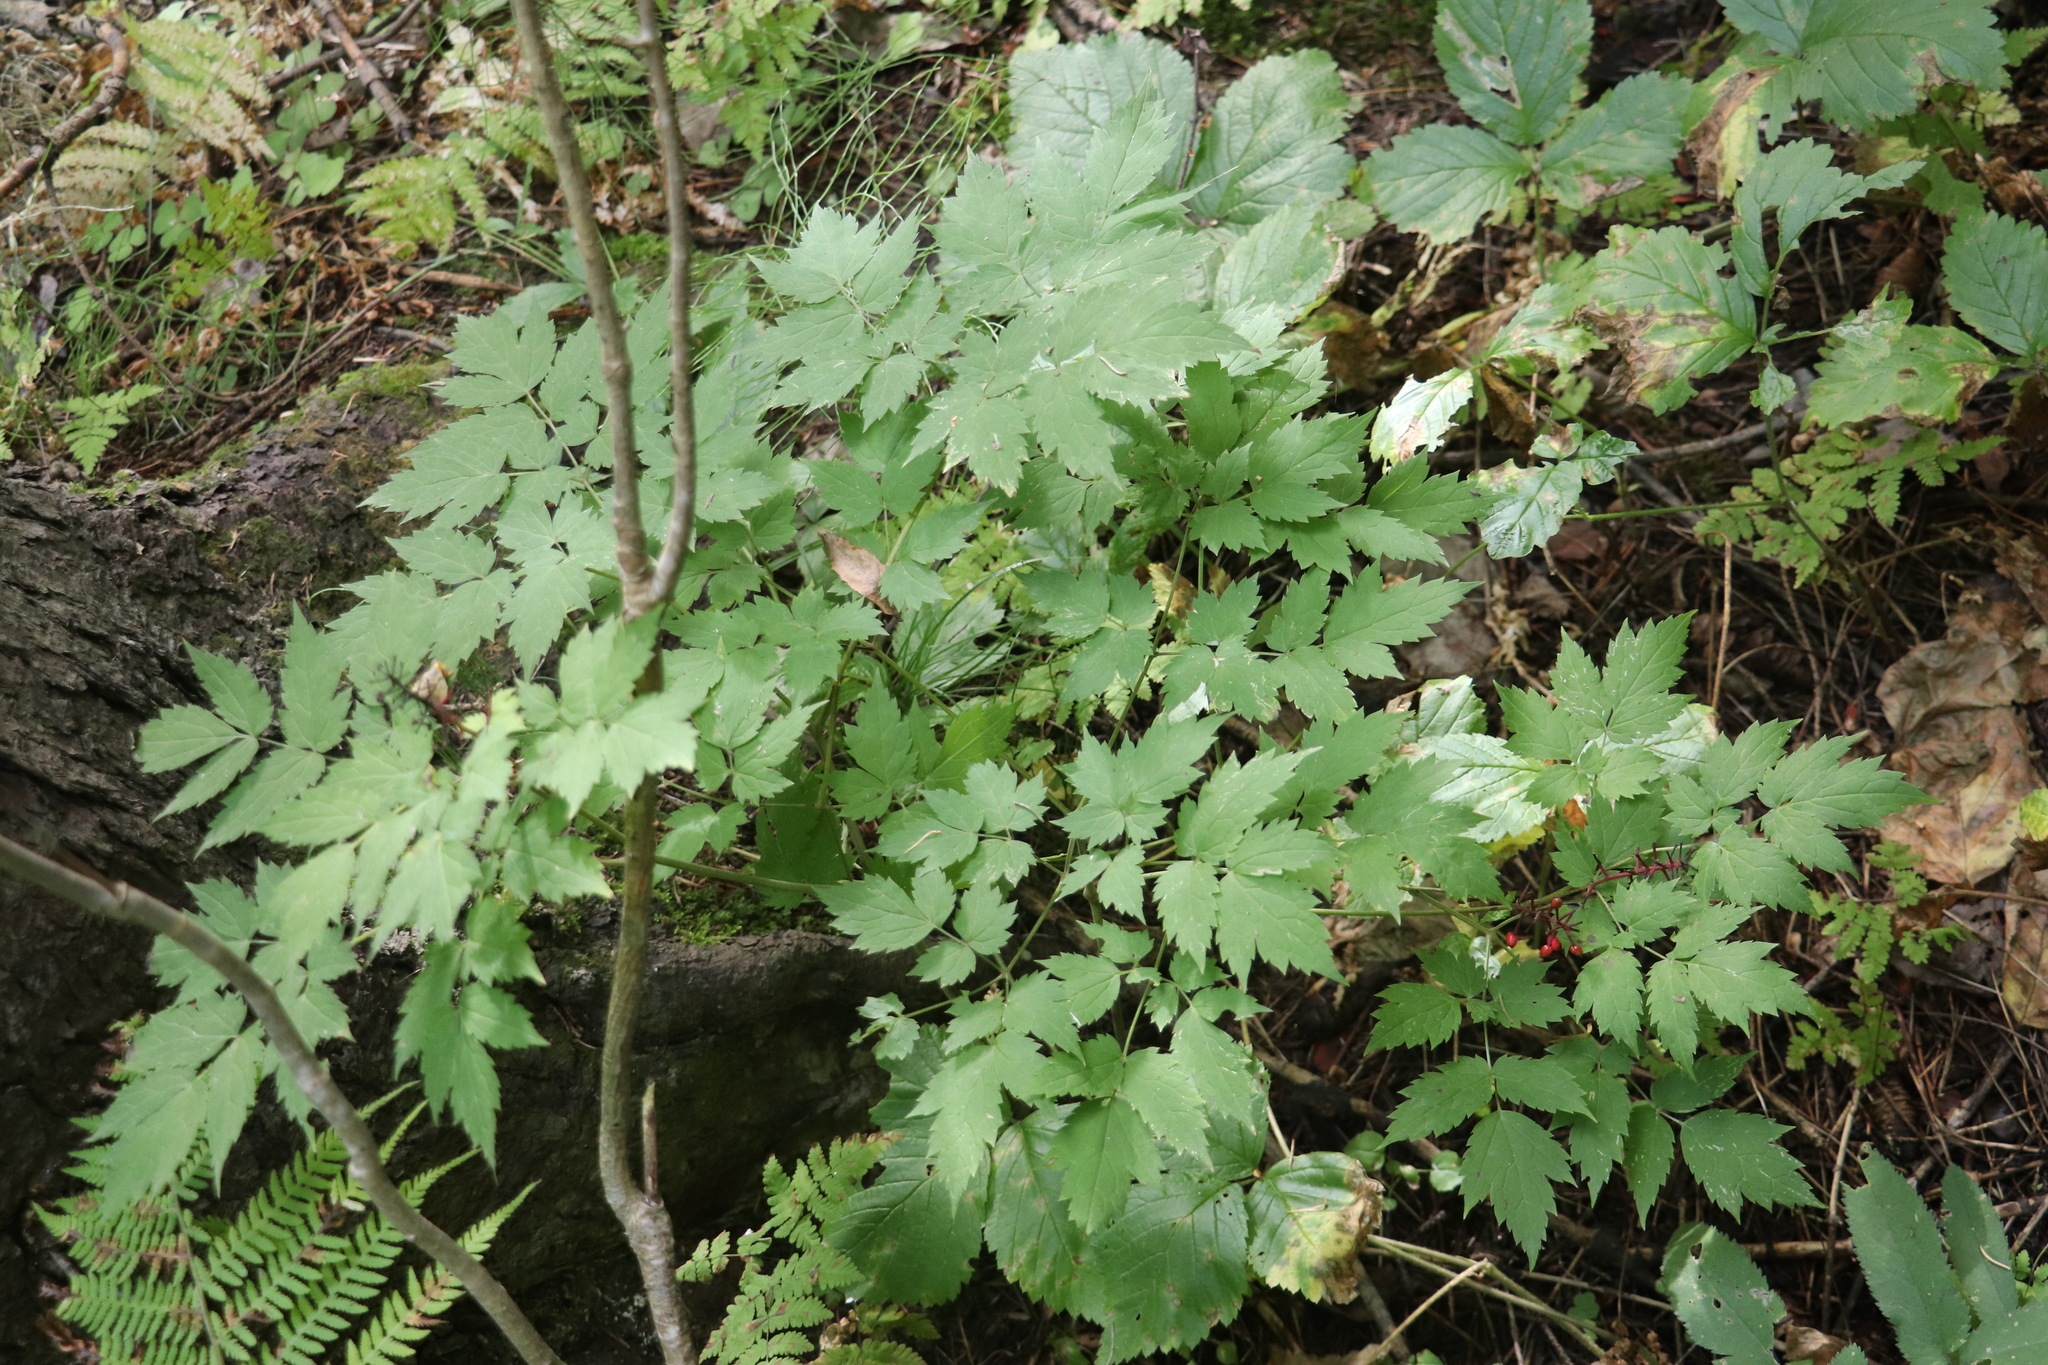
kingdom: Plantae
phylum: Tracheophyta
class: Magnoliopsida
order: Ranunculales
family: Ranunculaceae
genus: Actaea
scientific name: Actaea erythrocarpa
